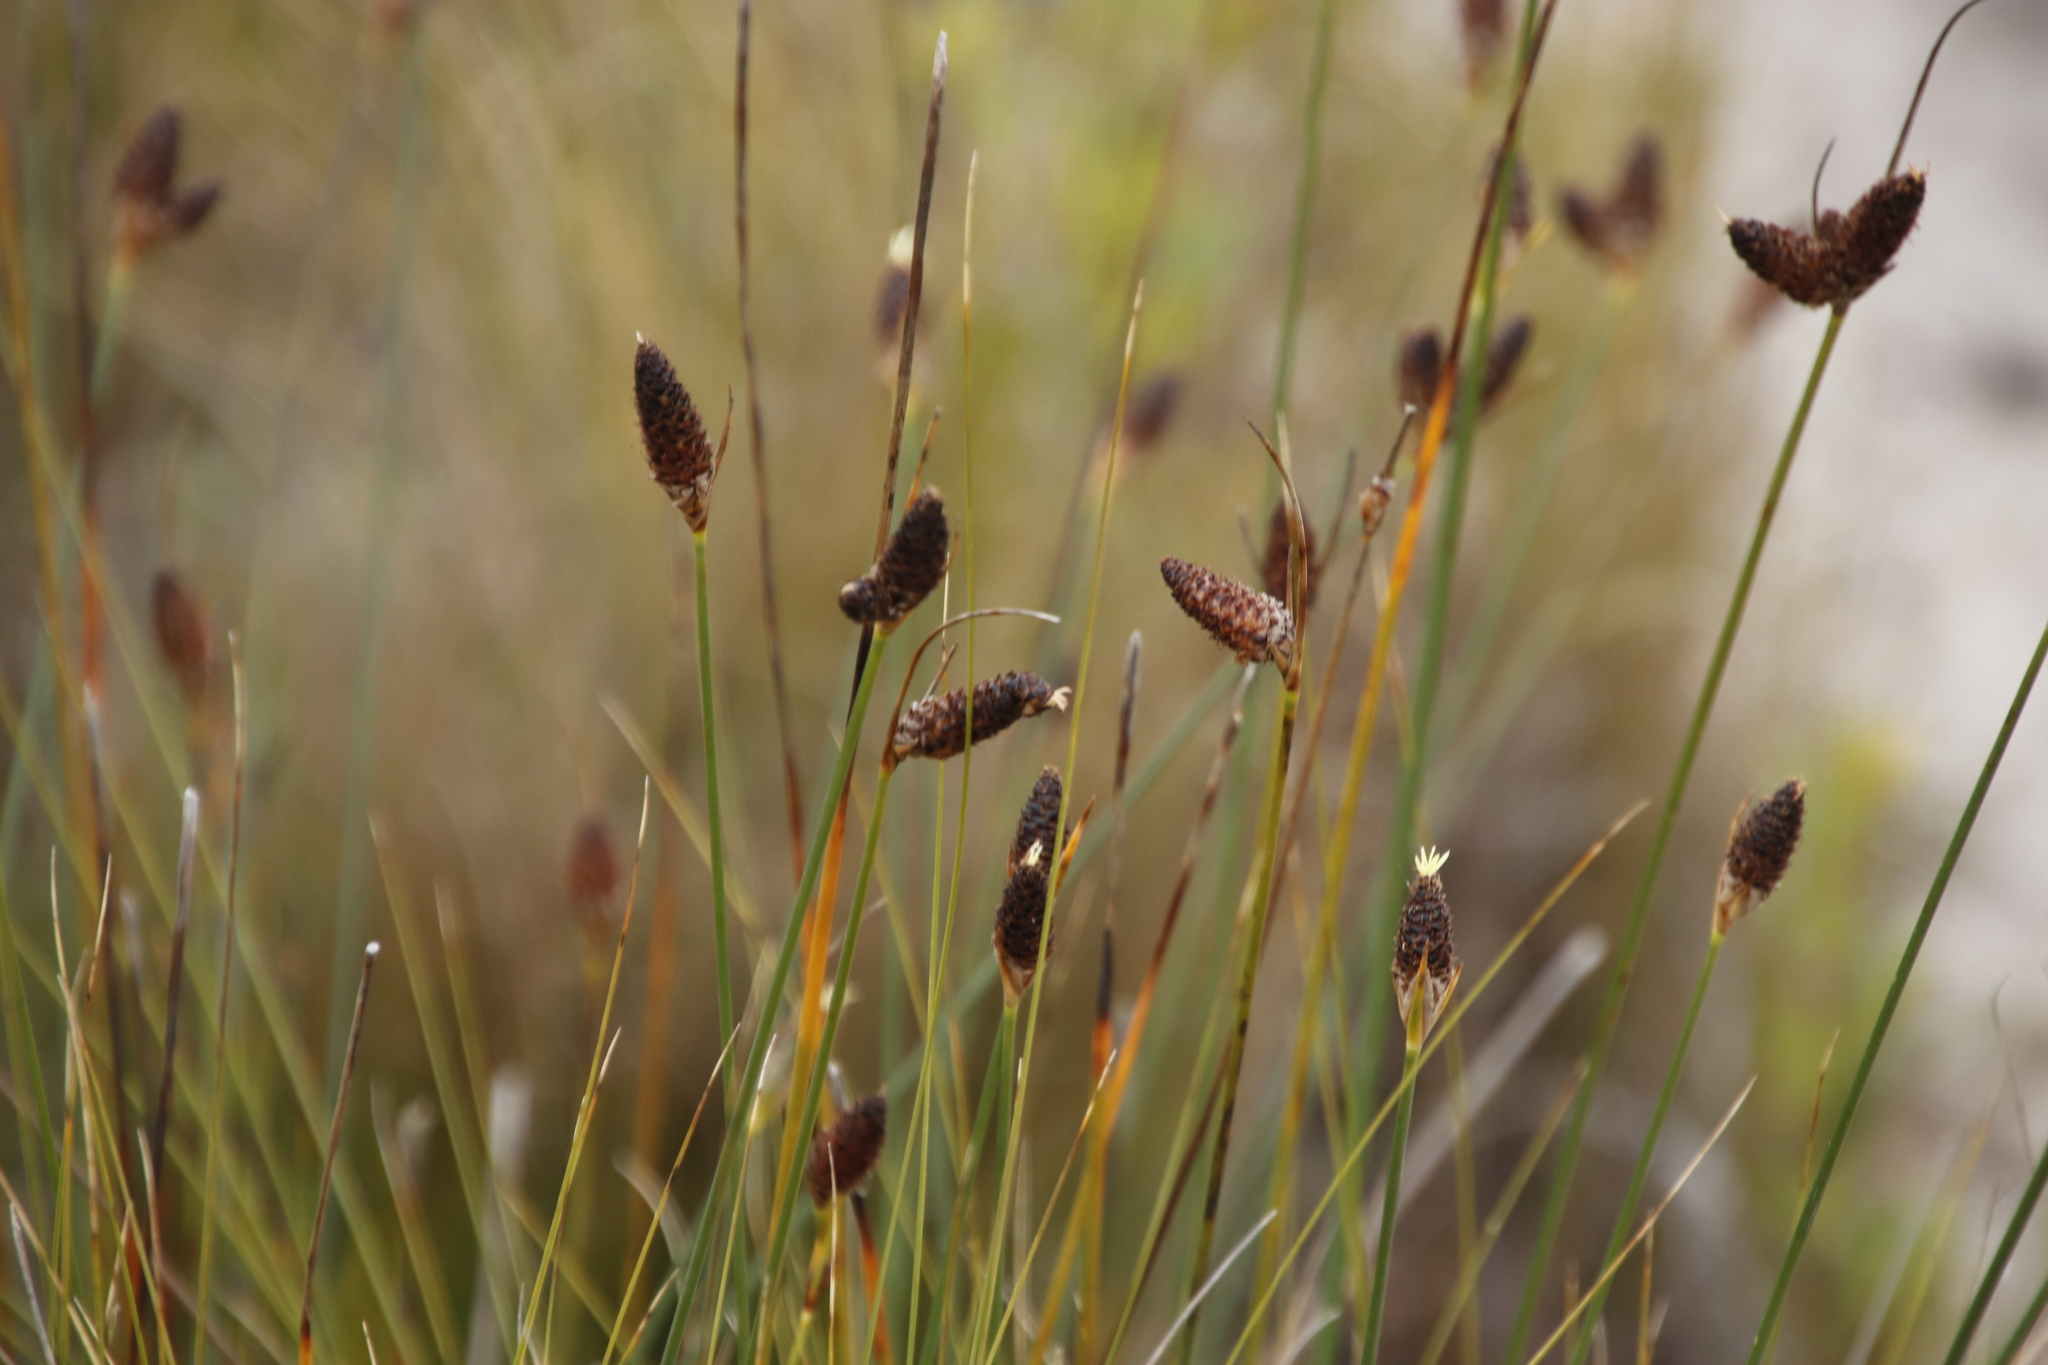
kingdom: Plantae
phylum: Tracheophyta
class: Liliopsida
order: Poales
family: Cyperaceae
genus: Hellmuthia
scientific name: Hellmuthia membranacea
